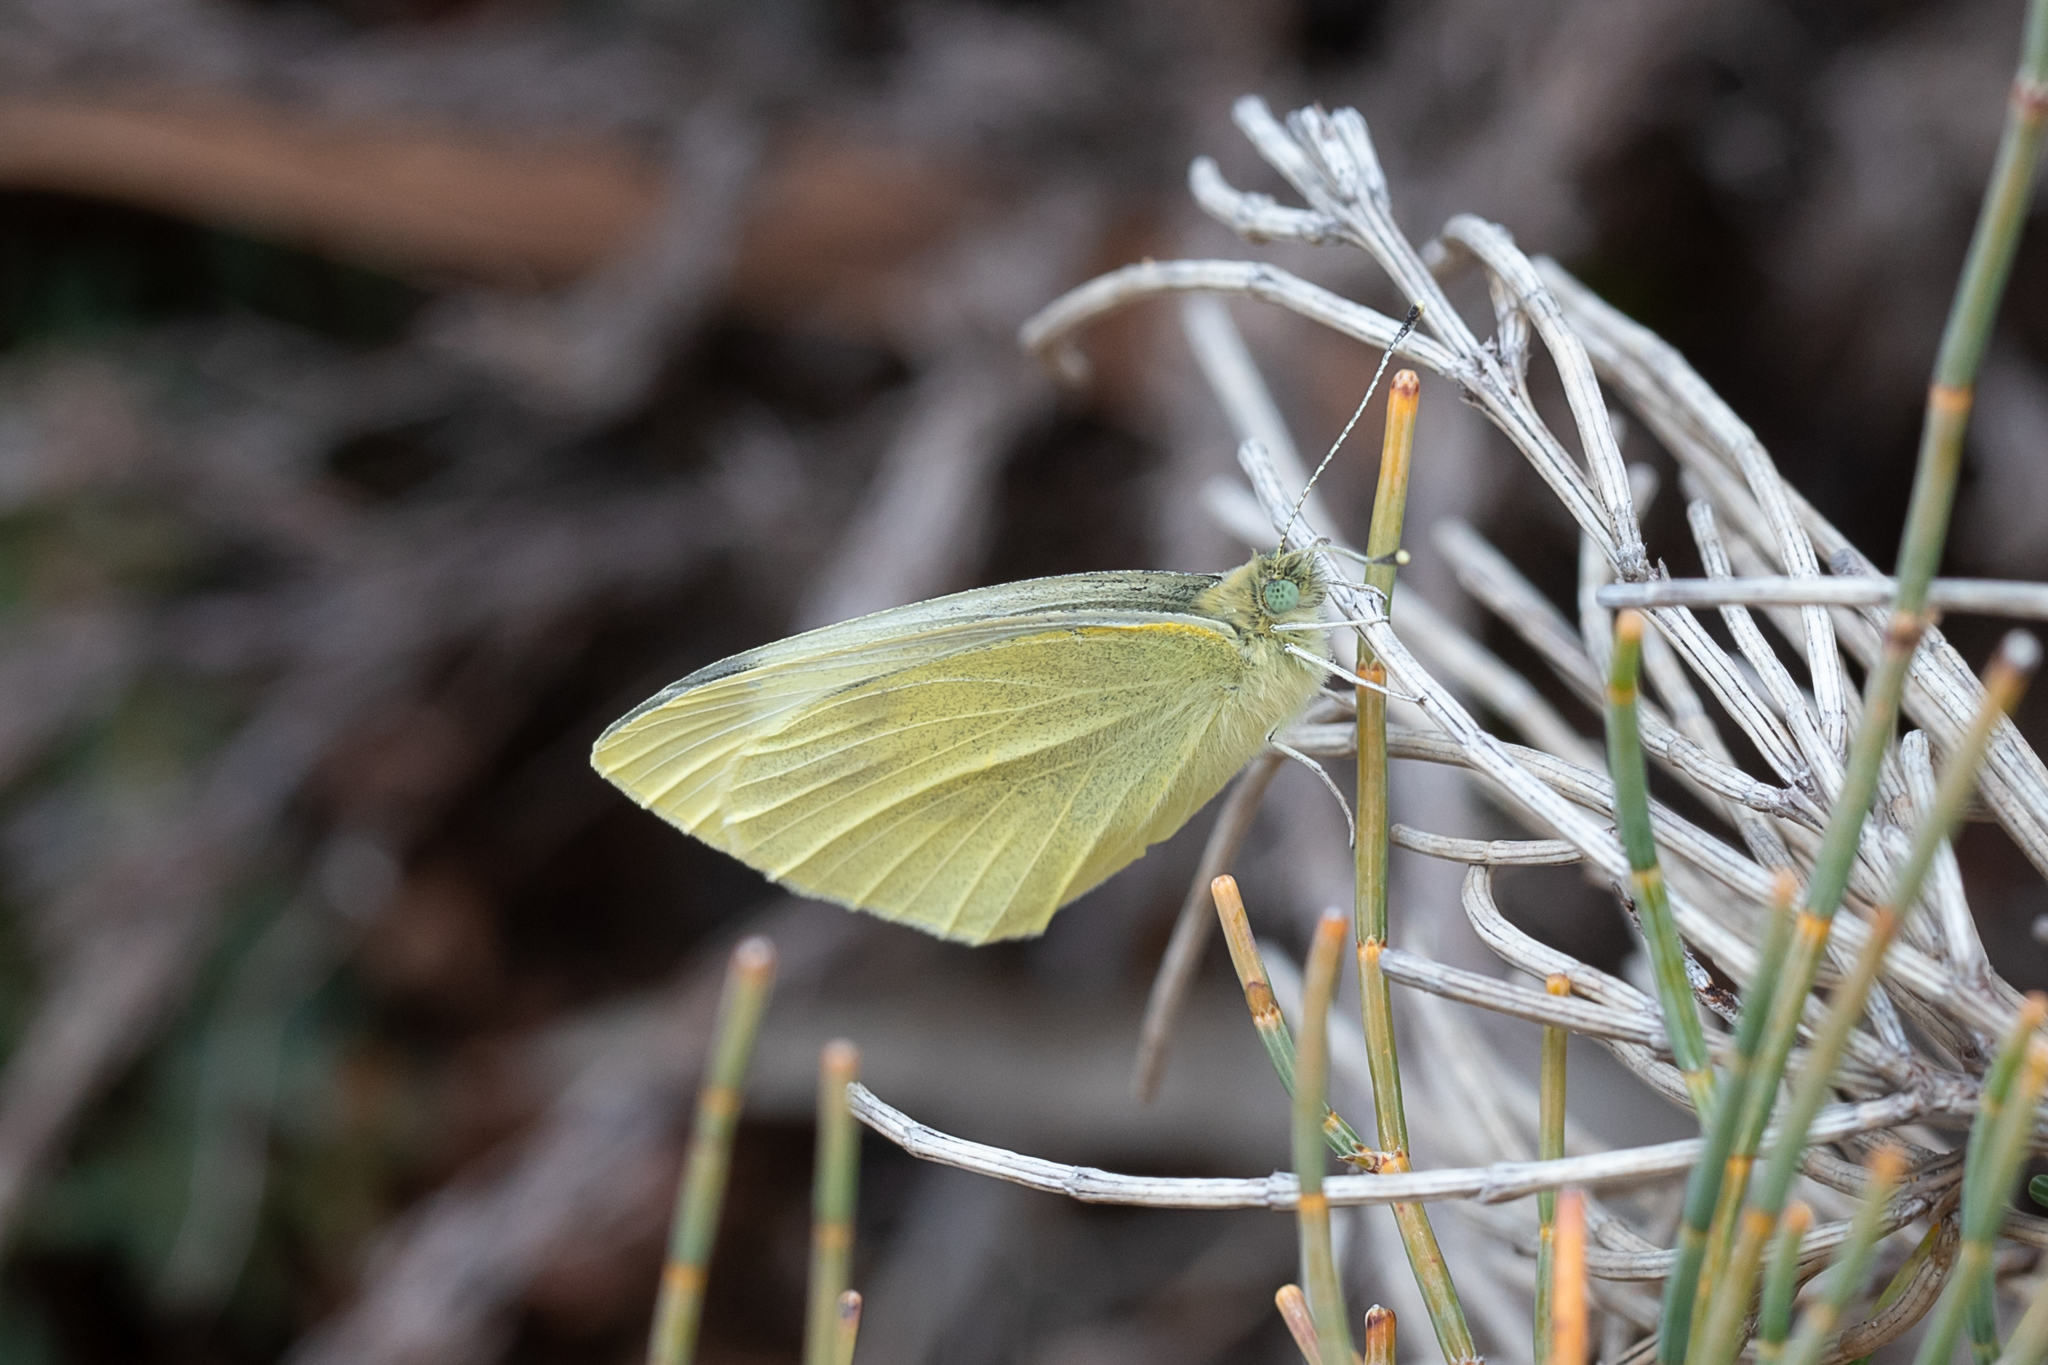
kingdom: Animalia
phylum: Arthropoda
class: Insecta
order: Lepidoptera
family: Pieridae
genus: Pieris
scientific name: Pieris rapae
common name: Small white
